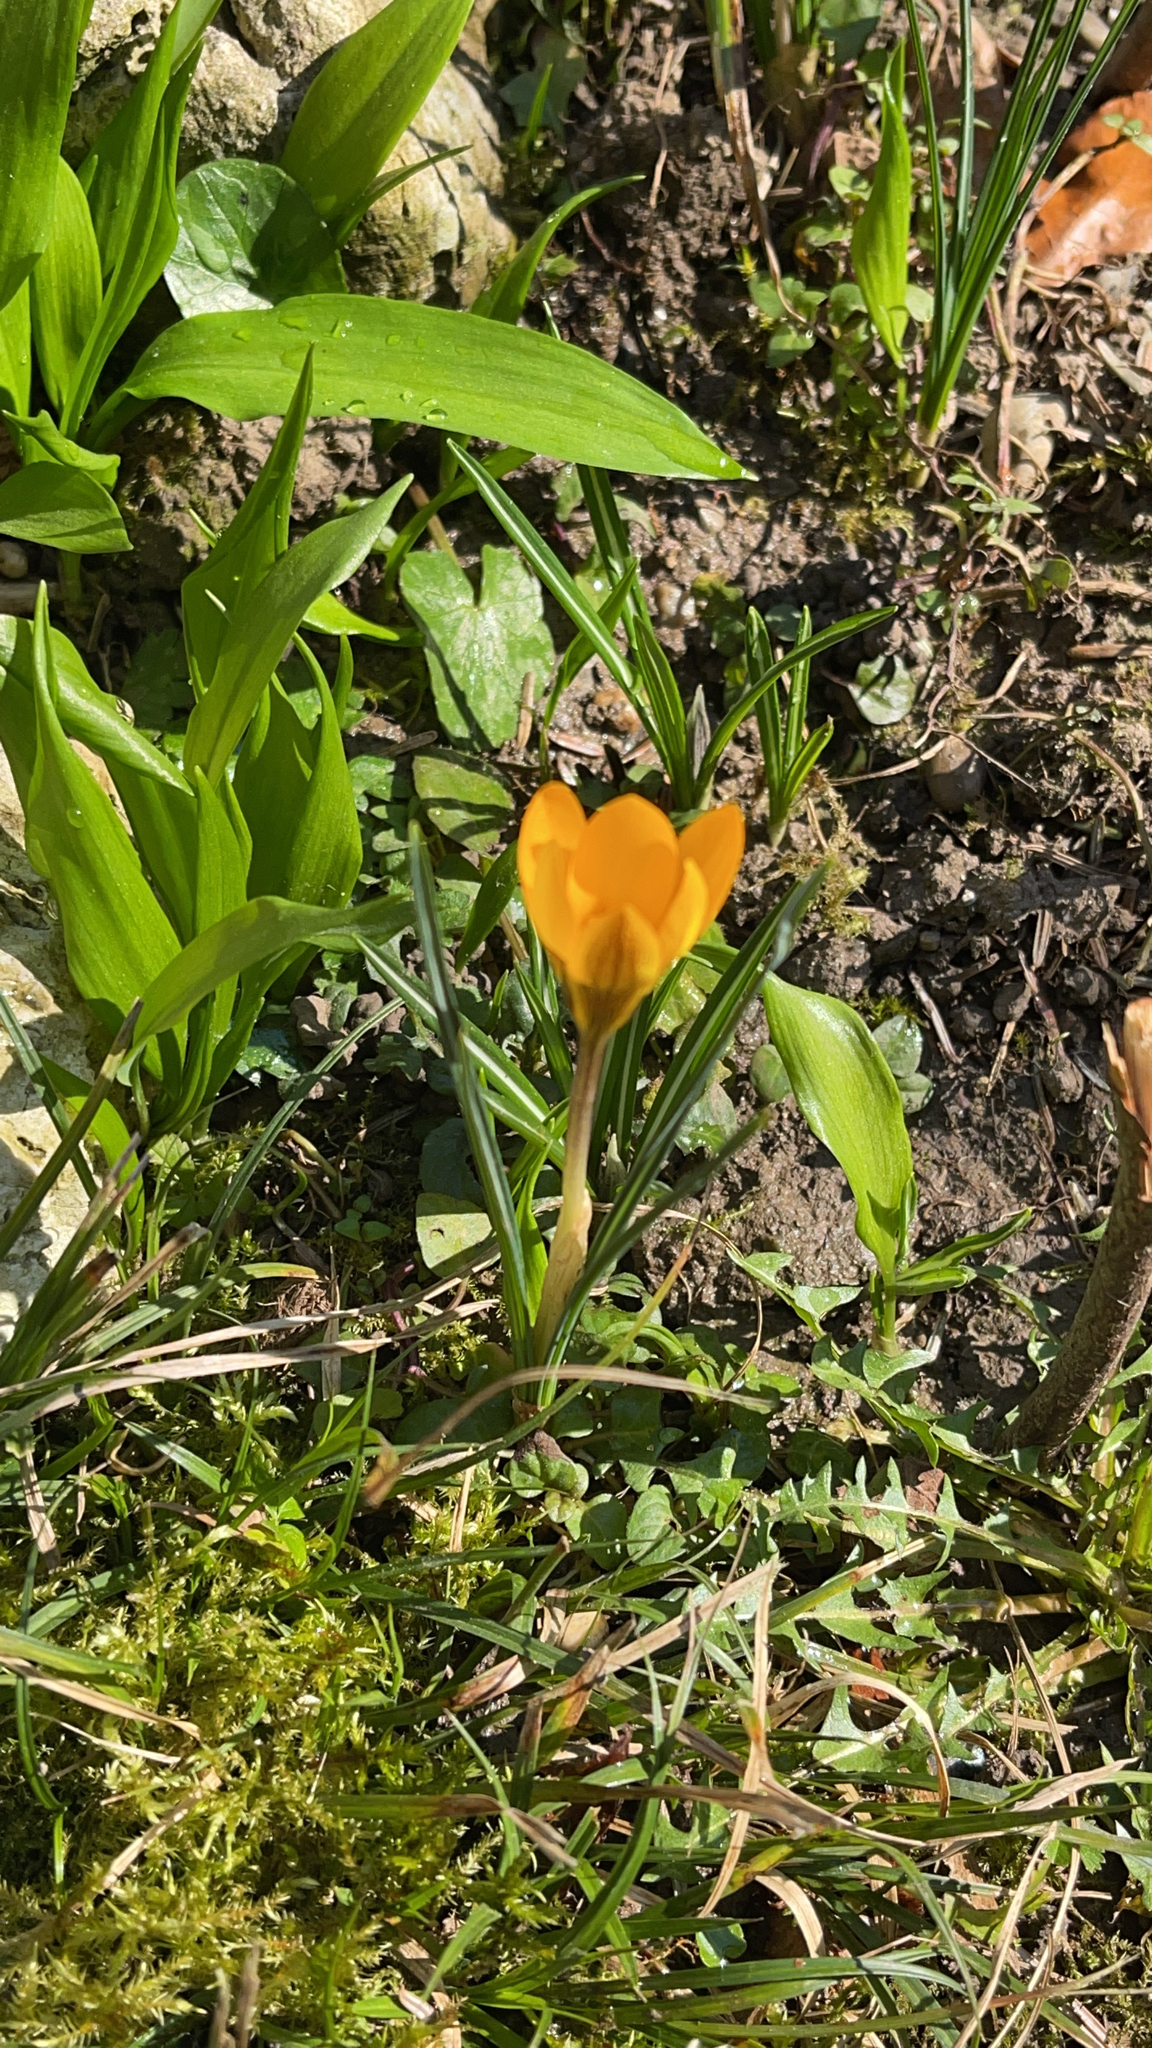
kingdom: Plantae
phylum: Tracheophyta
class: Liliopsida
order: Asparagales
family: Iridaceae
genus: Crocus
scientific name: Crocus chrysanthus
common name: Golden crocus
